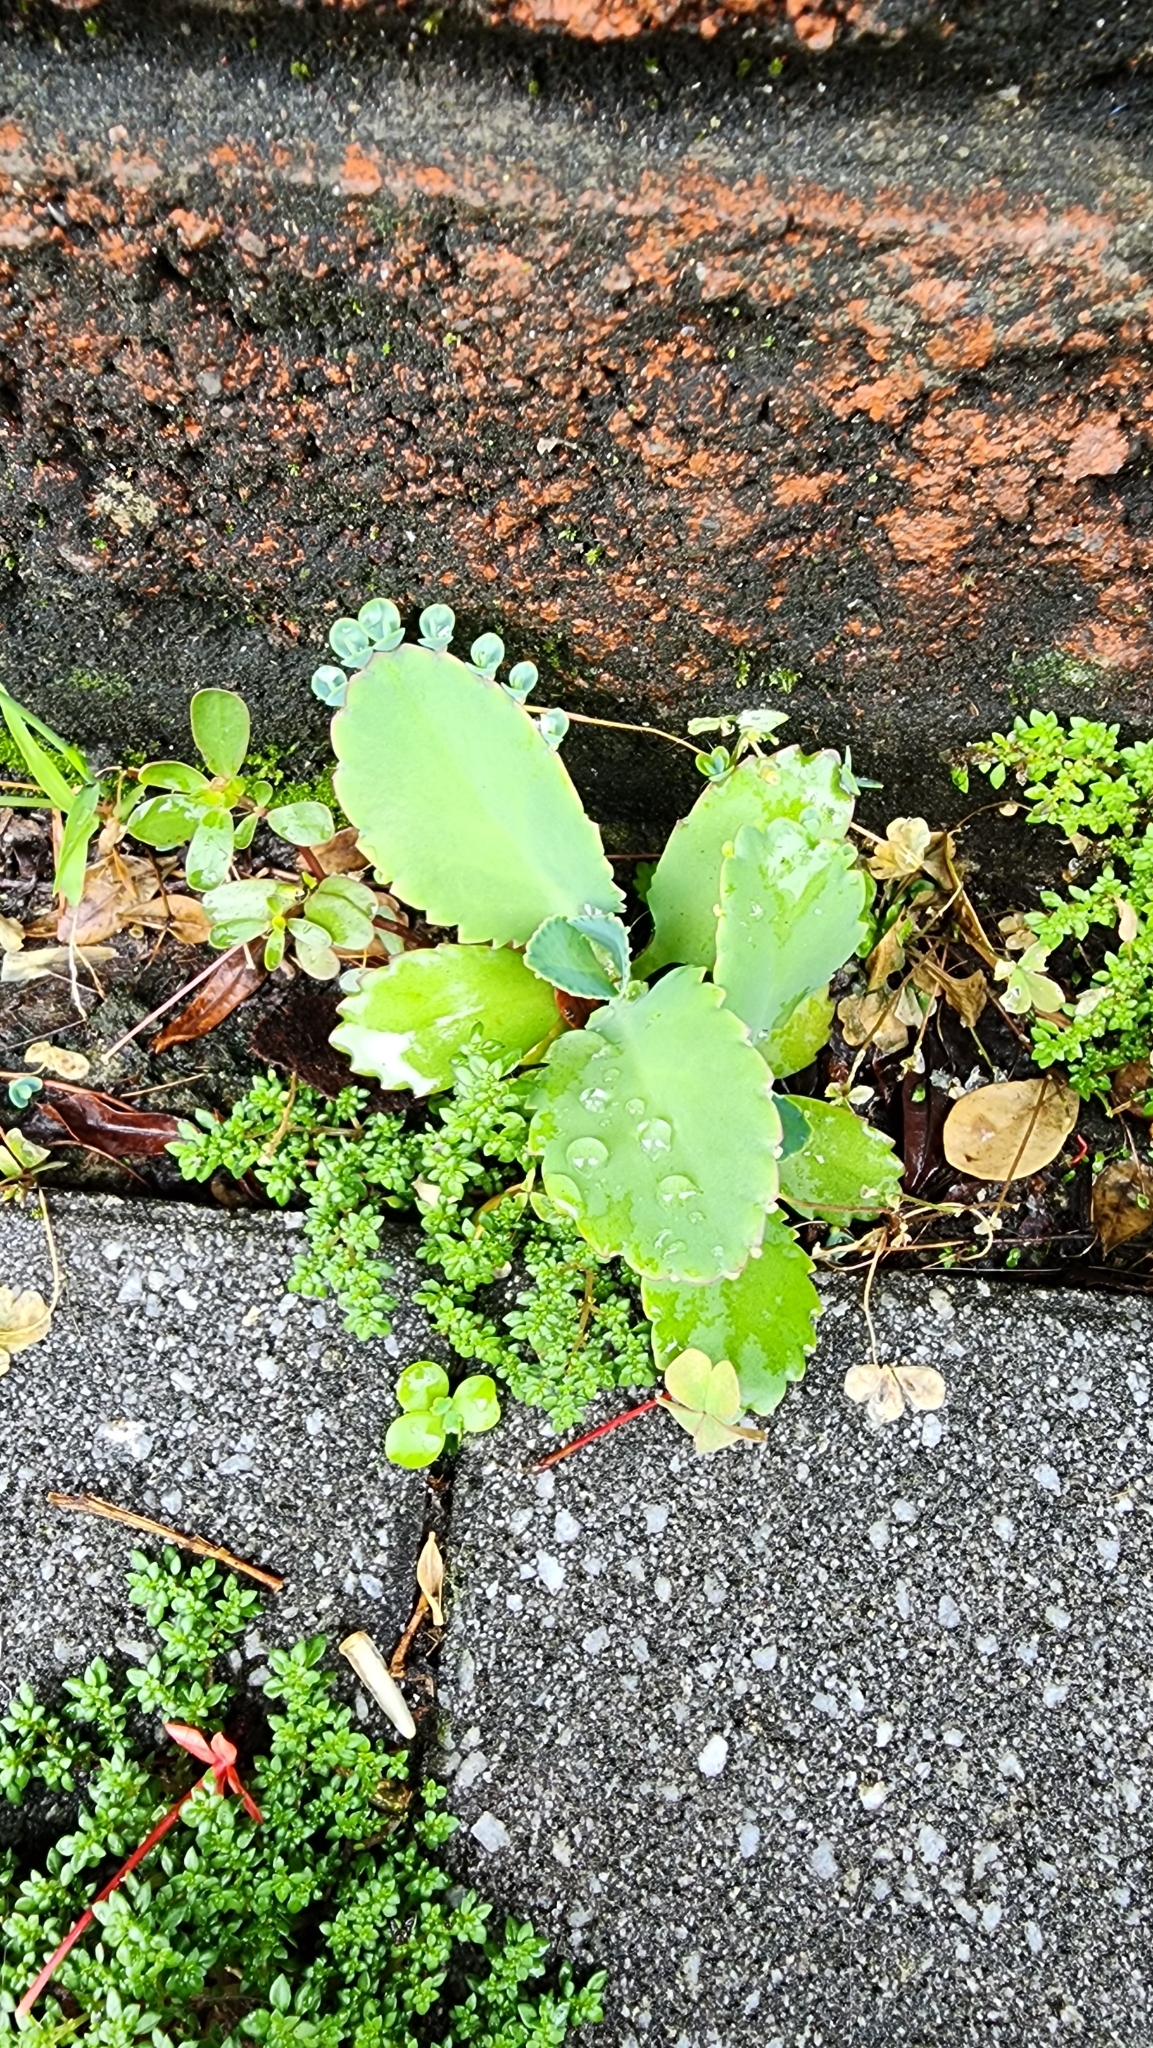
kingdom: Plantae
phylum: Tracheophyta
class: Magnoliopsida
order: Saxifragales
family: Crassulaceae
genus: Kalanchoe
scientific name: Kalanchoe laetivirens
